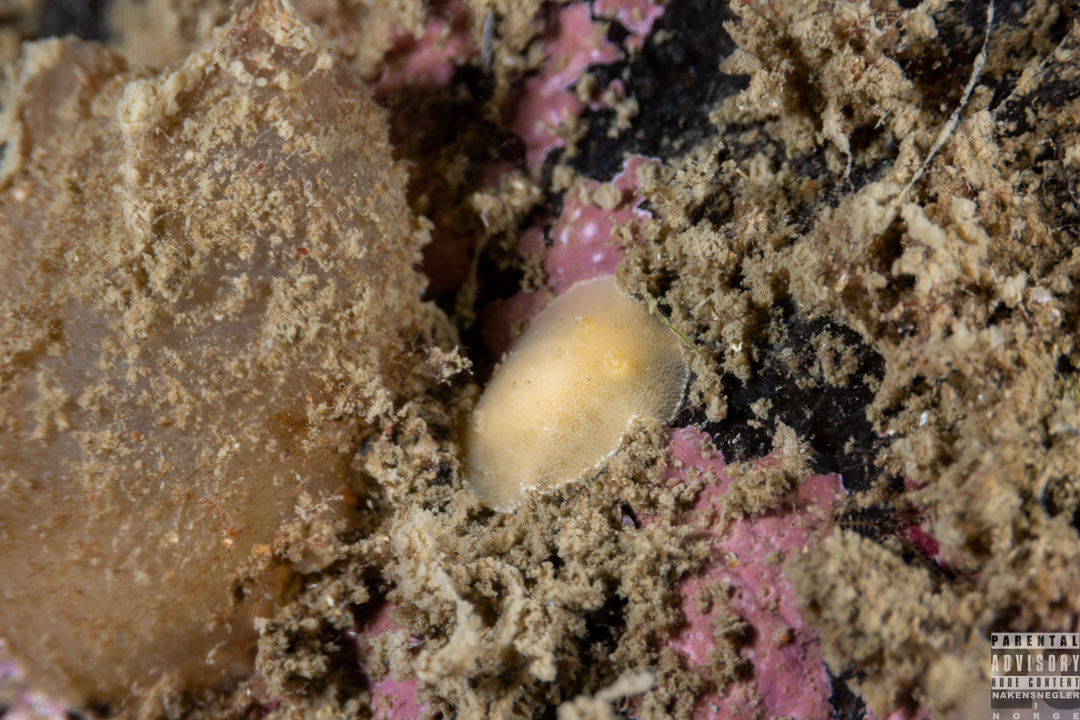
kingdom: Animalia
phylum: Mollusca
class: Gastropoda
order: Nudibranchia
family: Discodorididae
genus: Jorunna
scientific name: Jorunna tomentosa
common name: Grey sea slug
